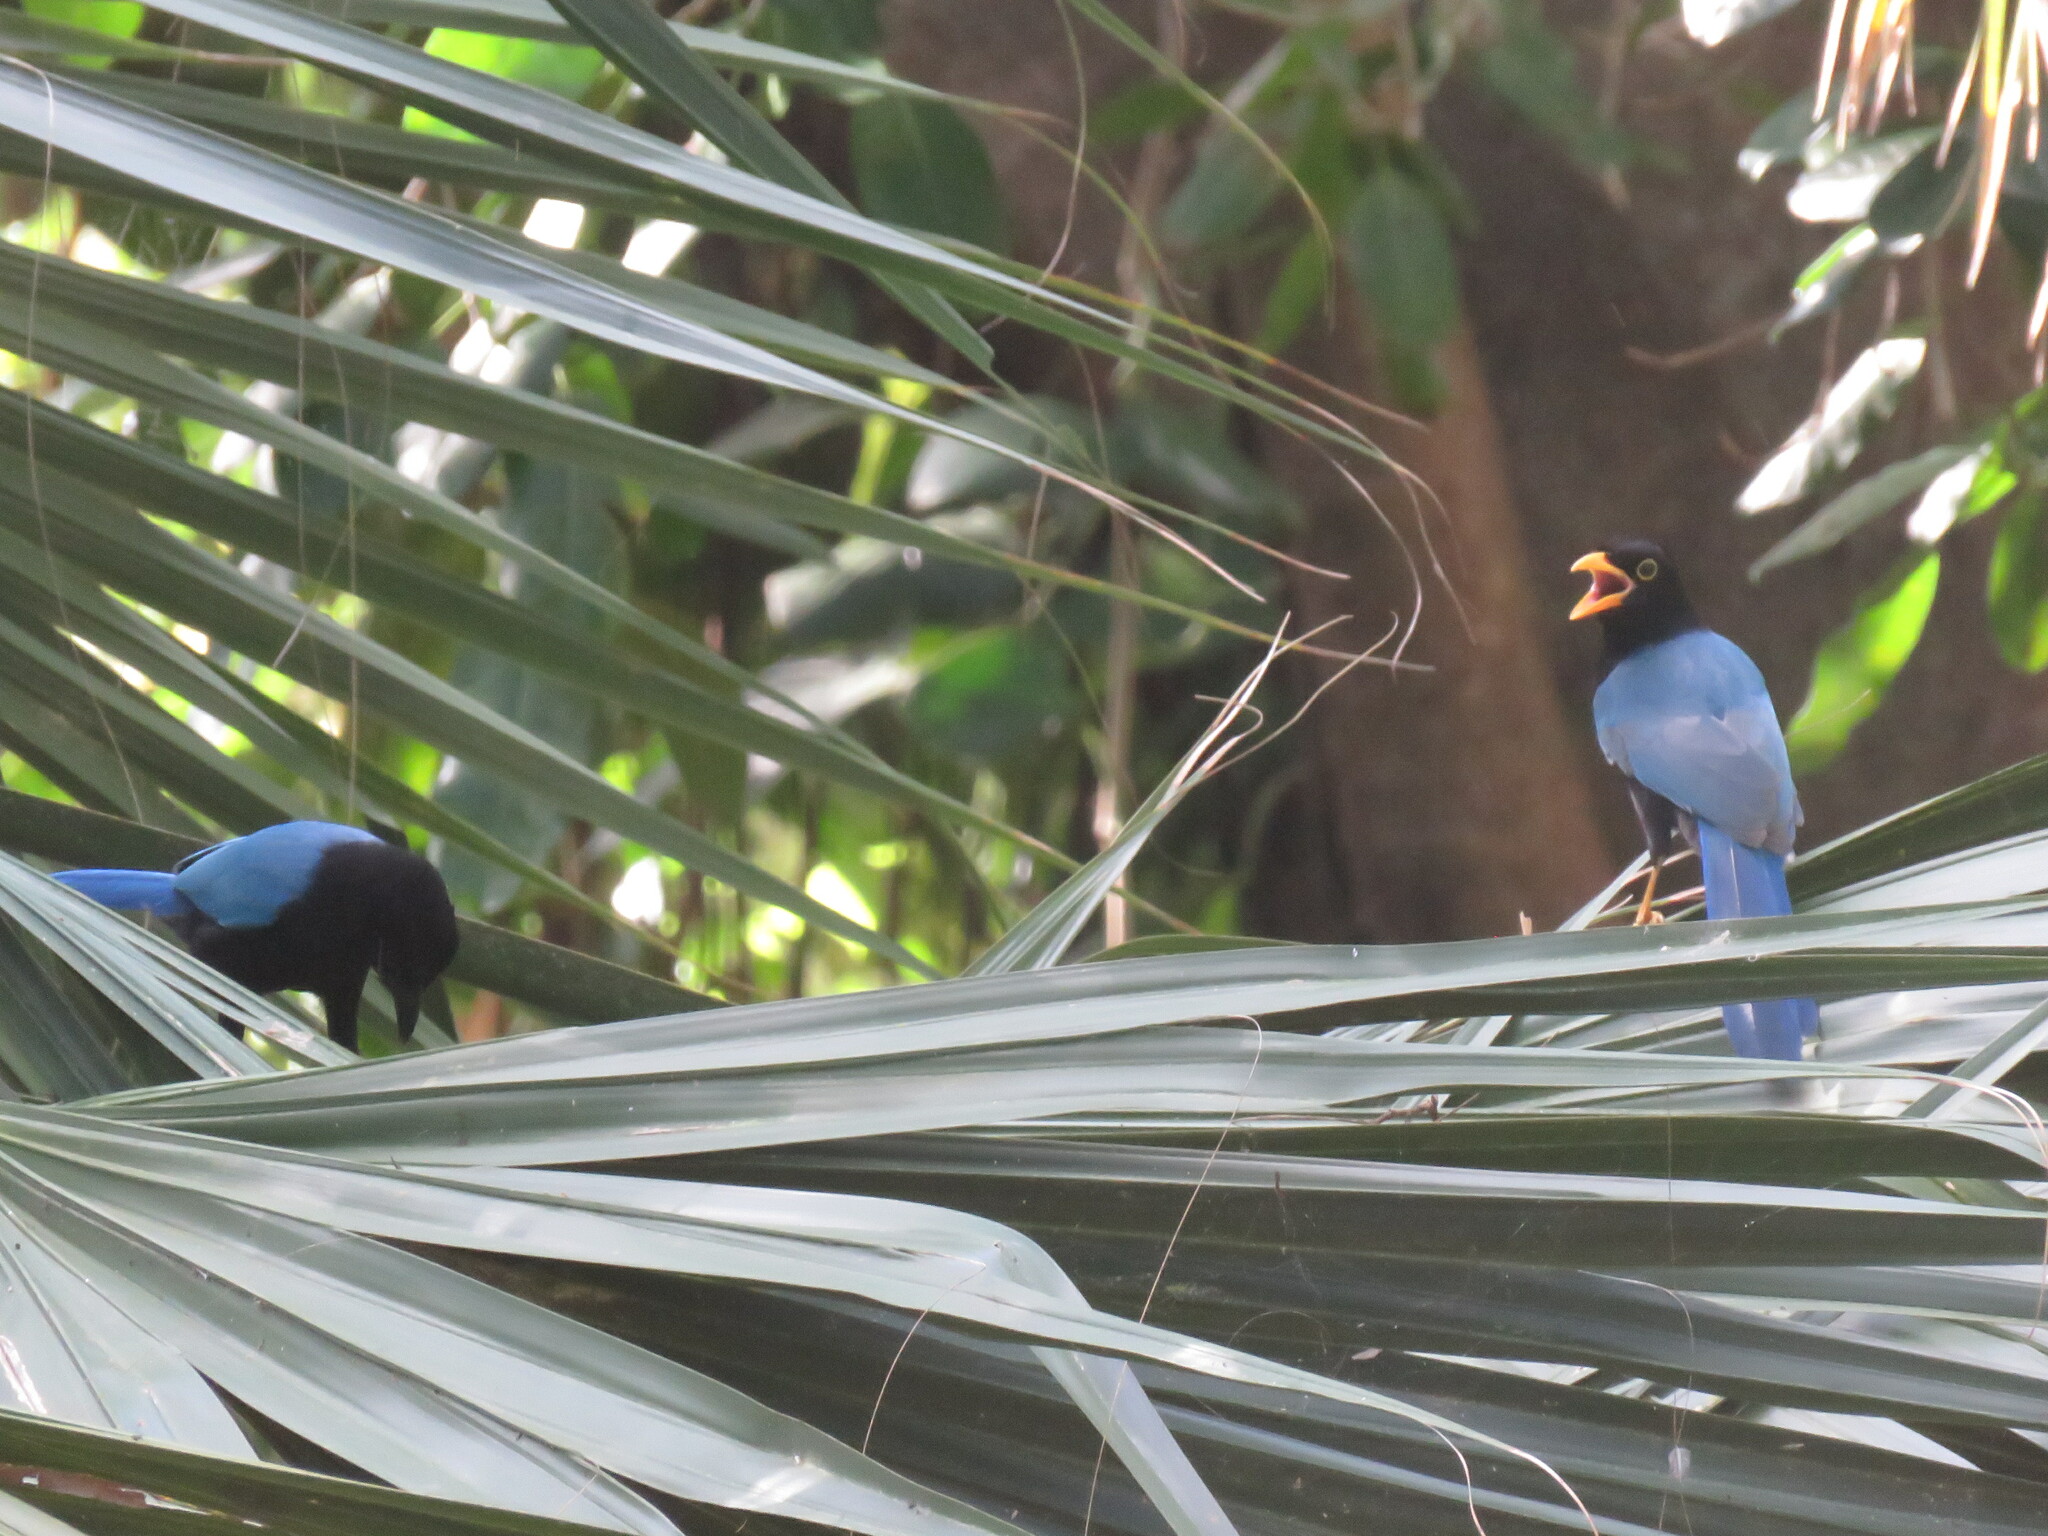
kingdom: Animalia
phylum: Chordata
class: Aves
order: Passeriformes
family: Corvidae
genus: Cyanocorax
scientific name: Cyanocorax yucatanicus
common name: Yucatan jay
